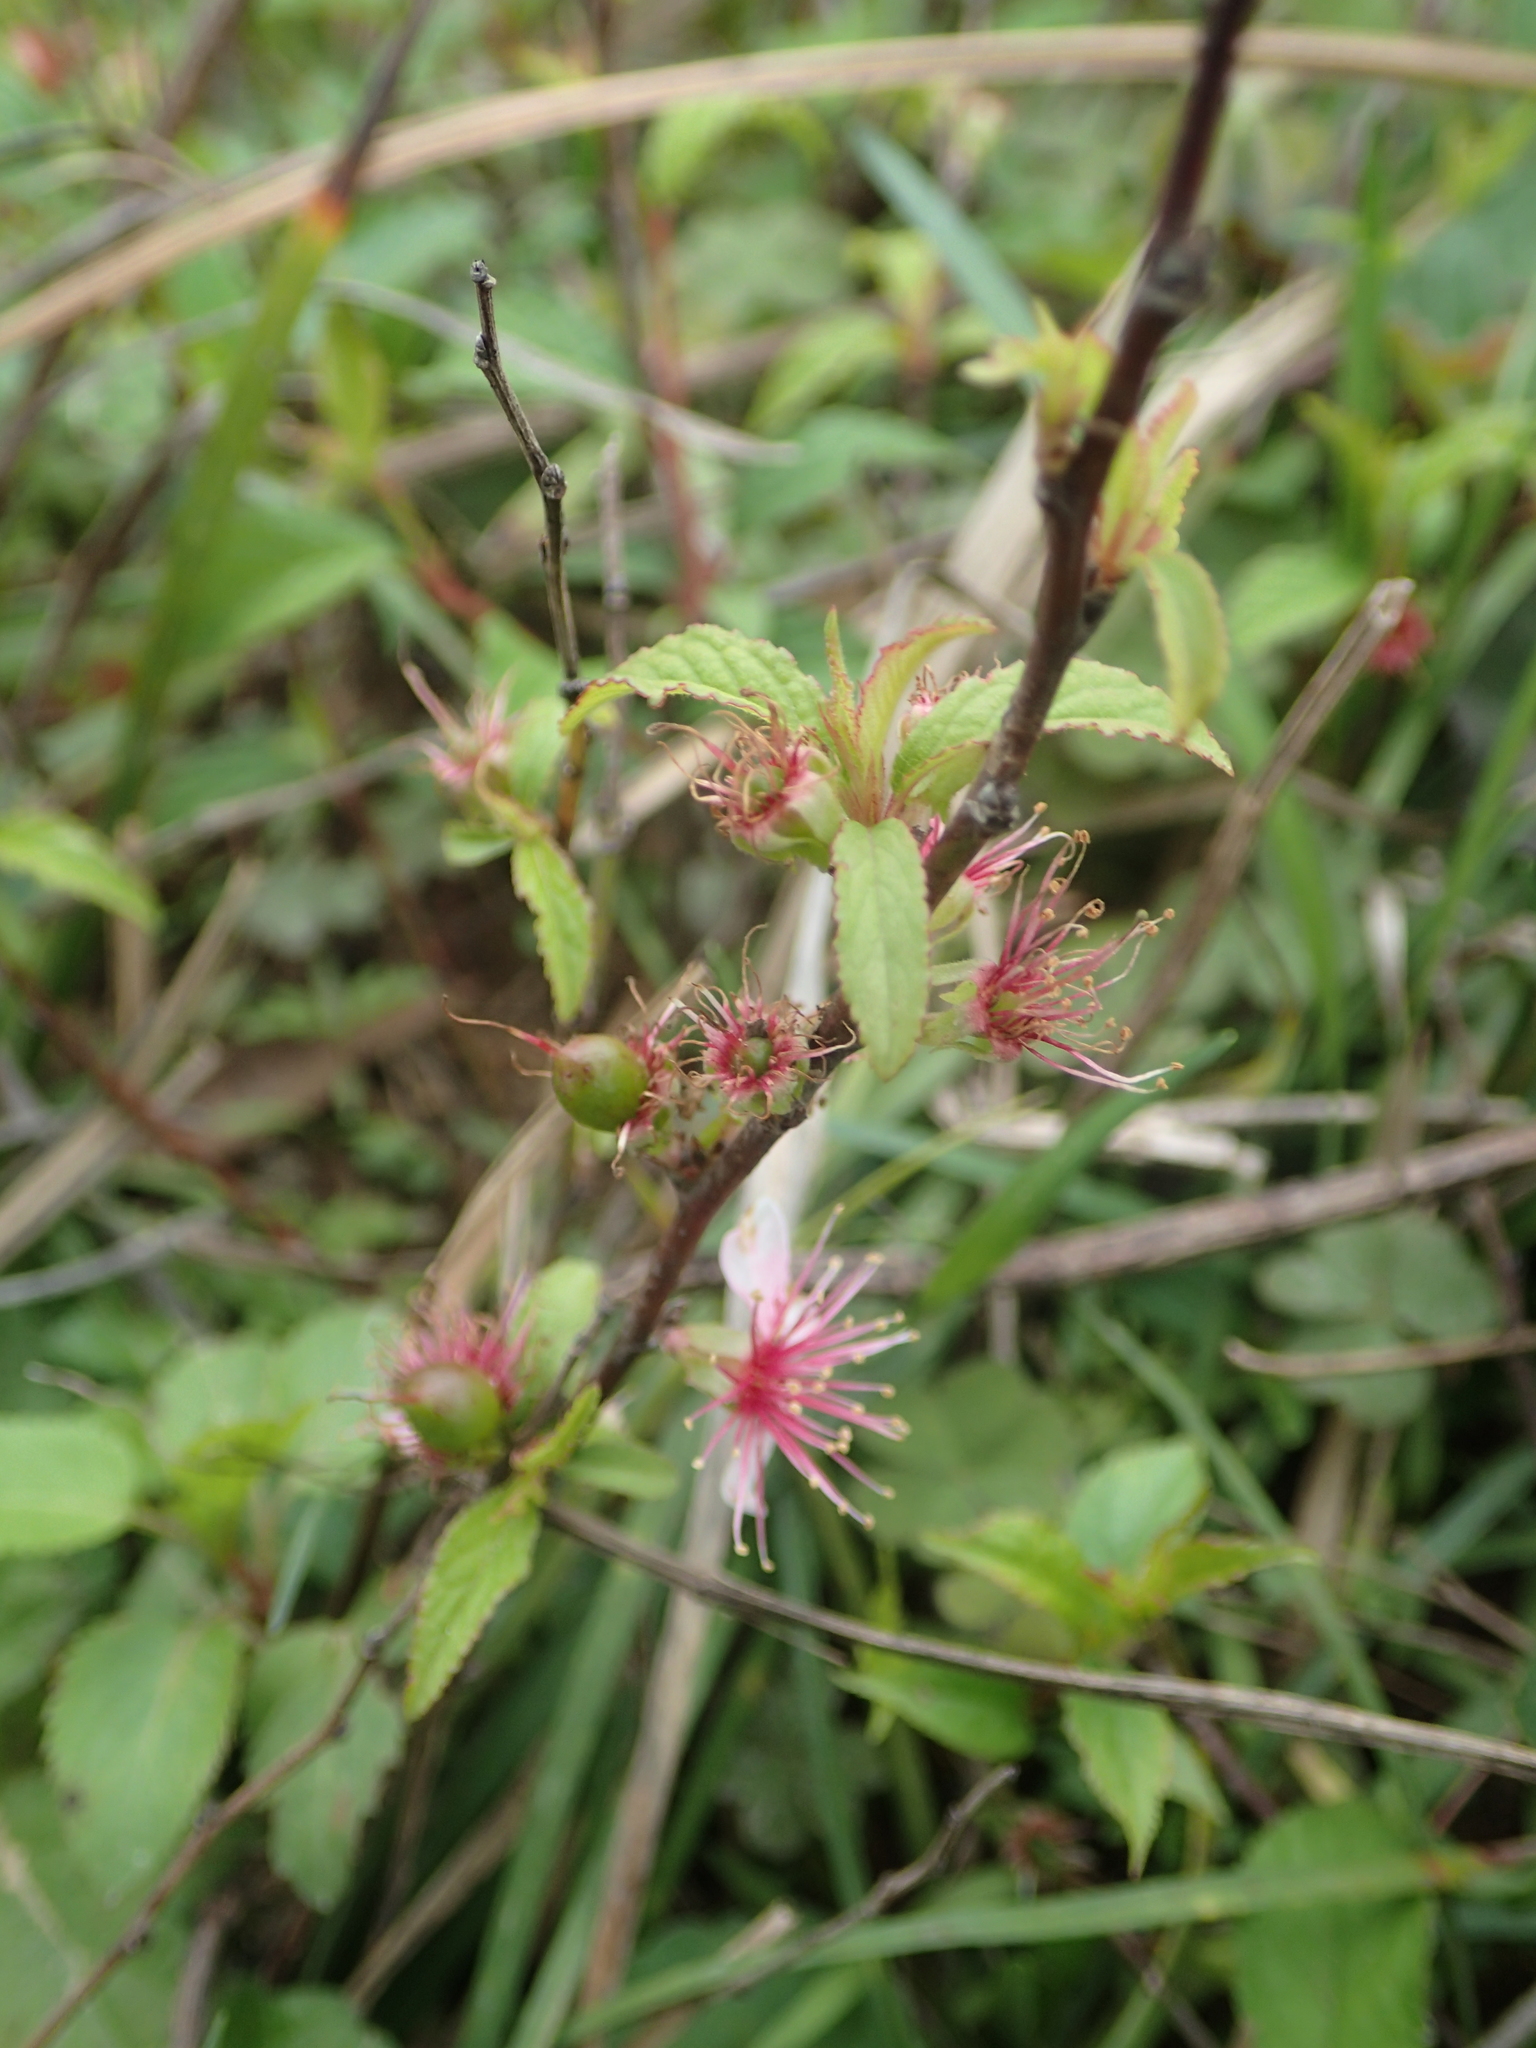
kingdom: Plantae
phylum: Tracheophyta
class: Magnoliopsida
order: Rosales
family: Rosaceae
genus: Prunus
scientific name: Prunus pogonostyla
